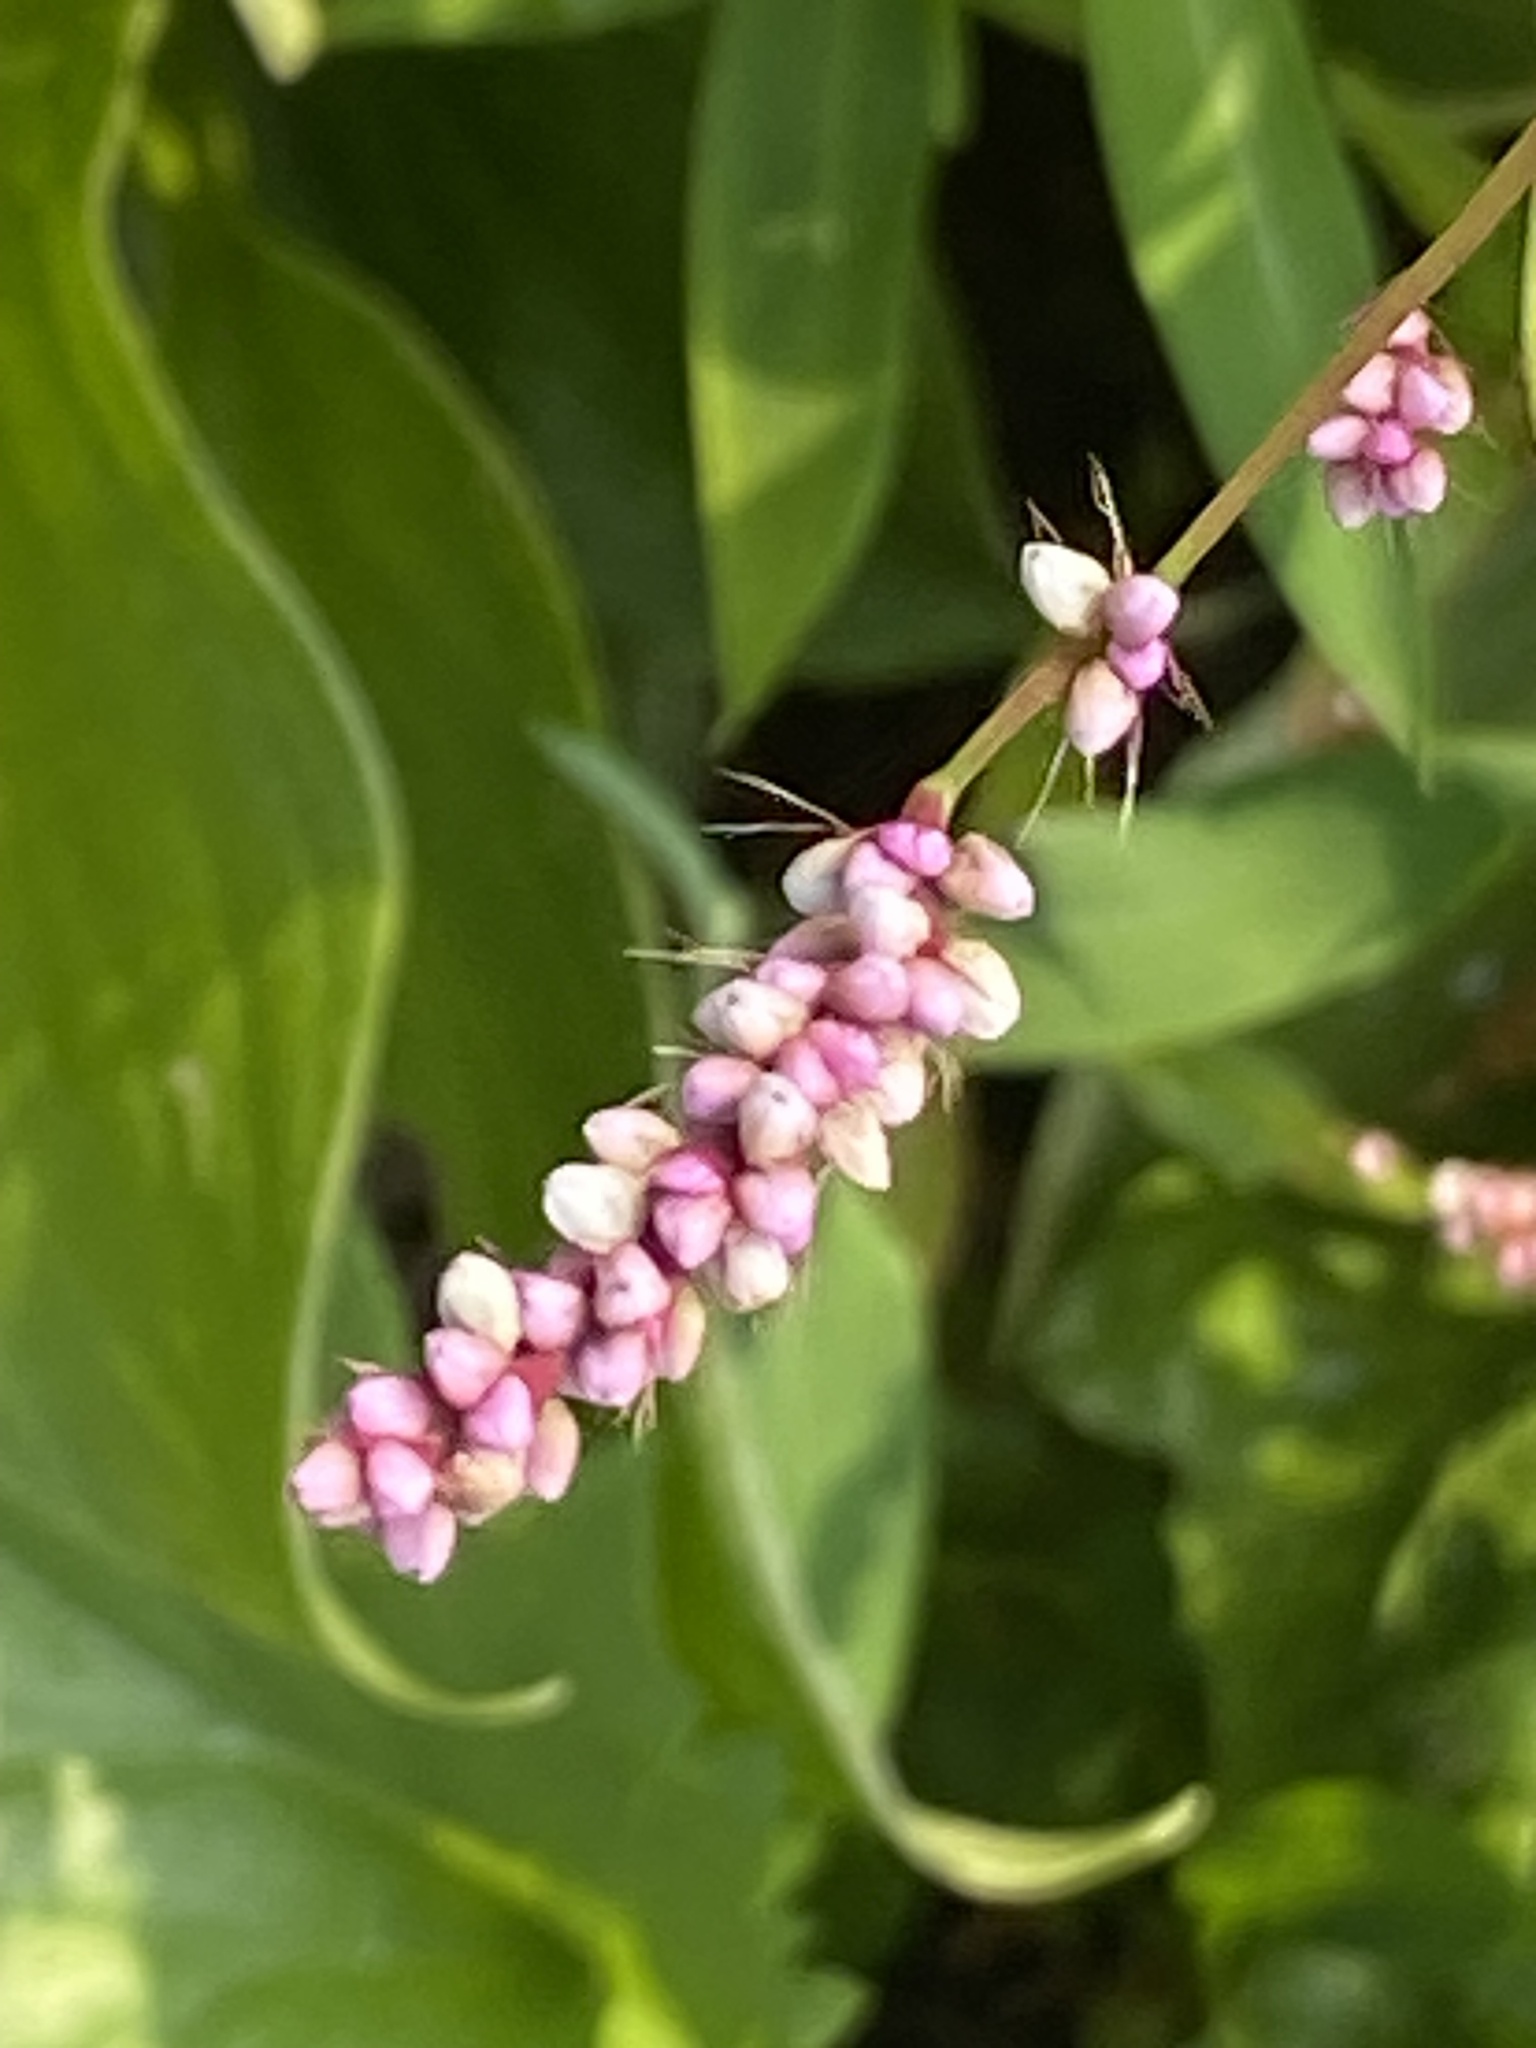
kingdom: Plantae
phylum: Tracheophyta
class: Magnoliopsida
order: Caryophyllales
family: Polygonaceae
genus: Persicaria
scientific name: Persicaria longiseta
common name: Bristly lady's-thumb
